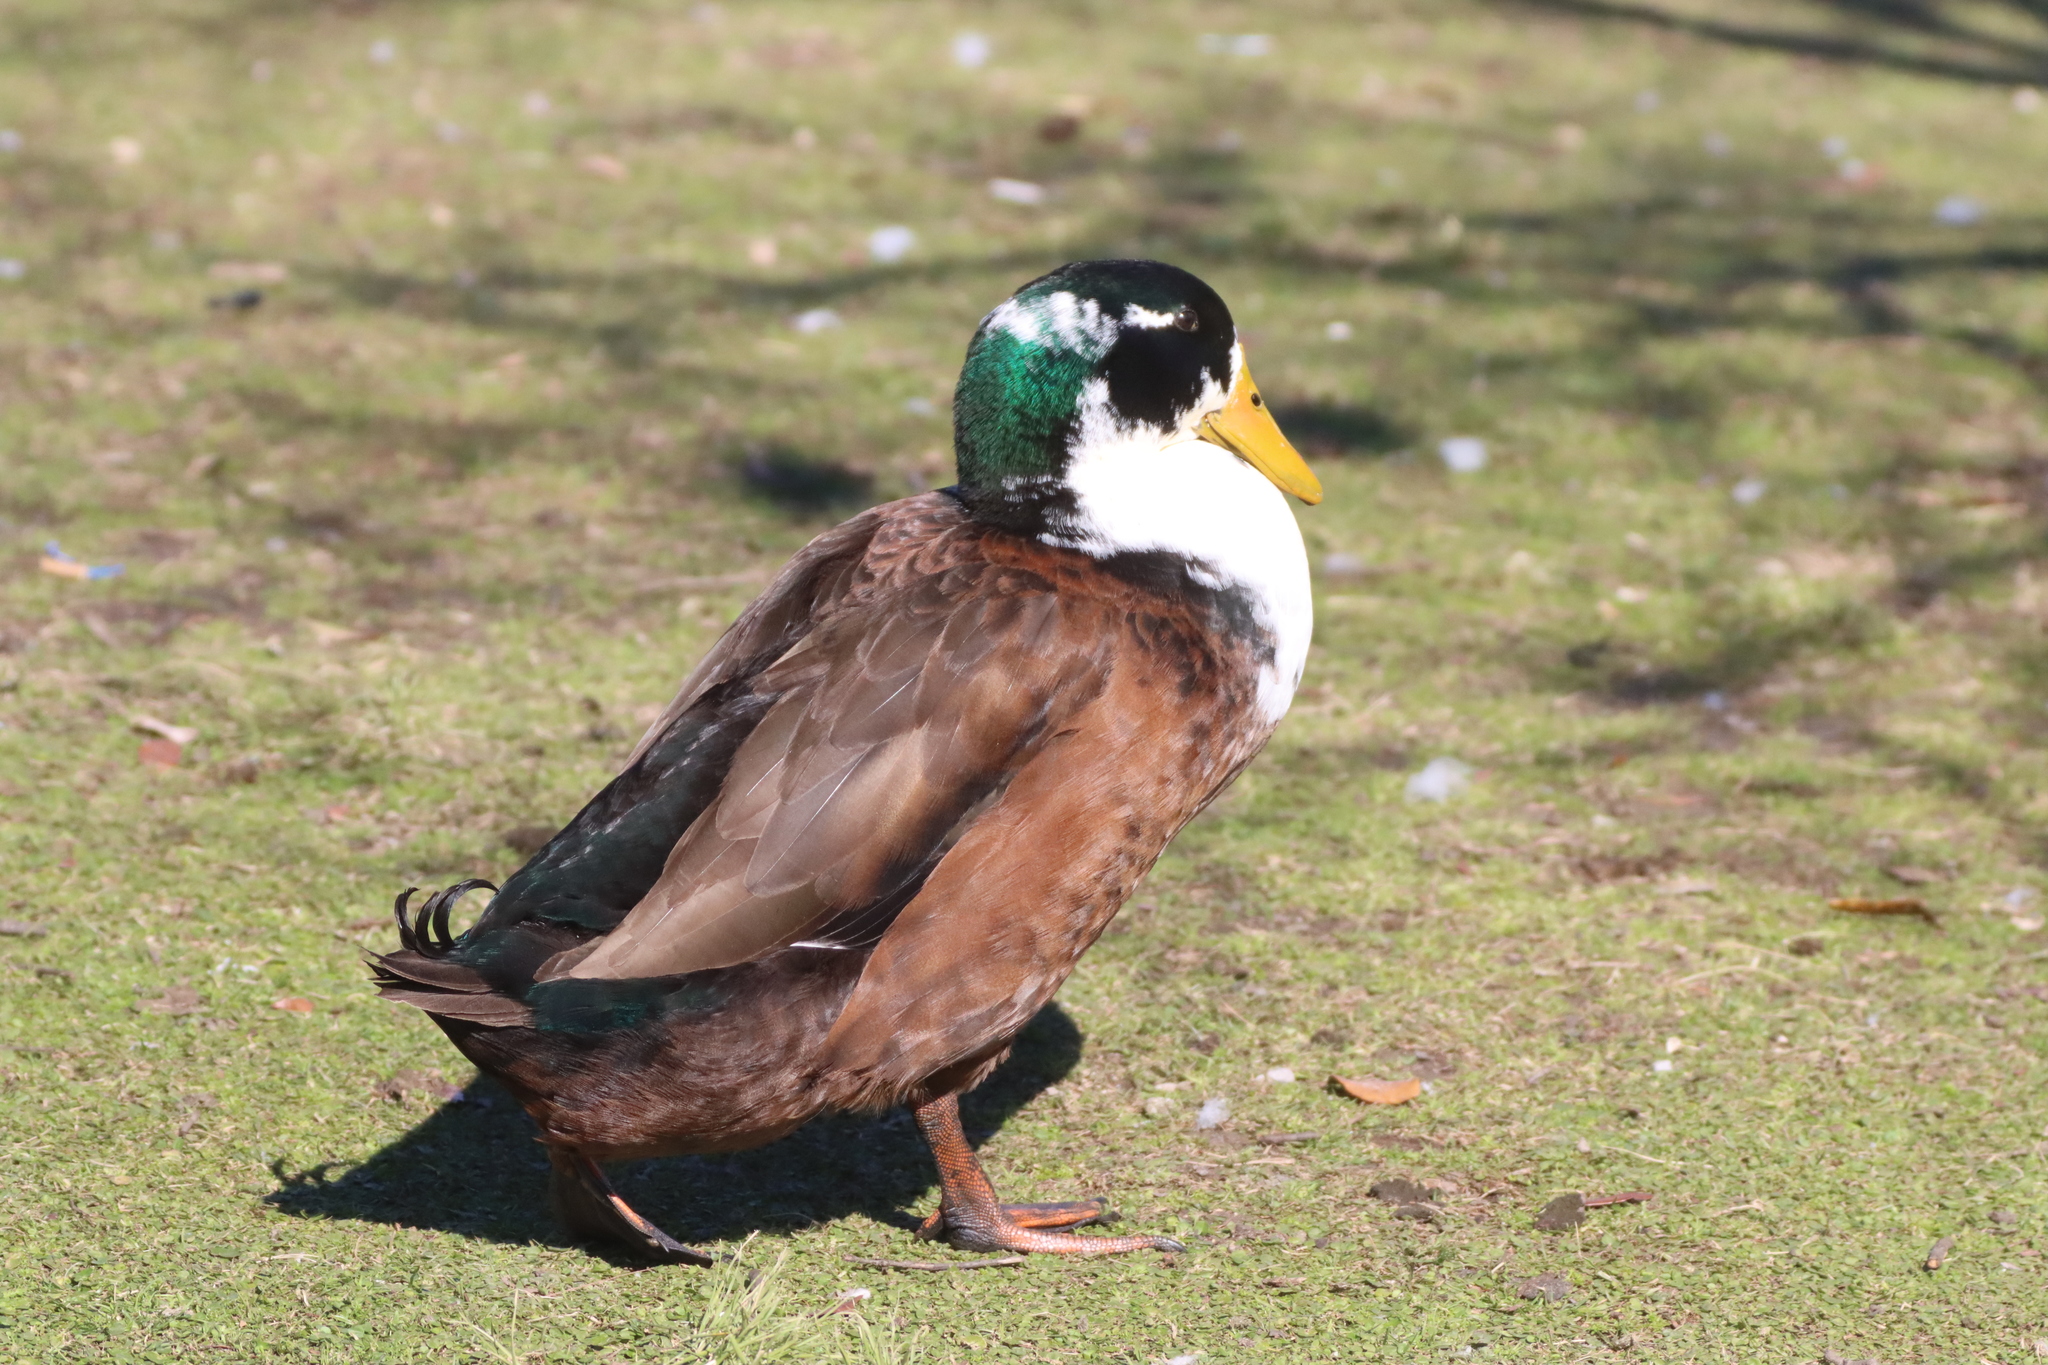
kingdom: Animalia
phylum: Chordata
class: Aves
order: Anseriformes
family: Anatidae
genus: Anas
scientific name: Anas platyrhynchos
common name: Mallard
